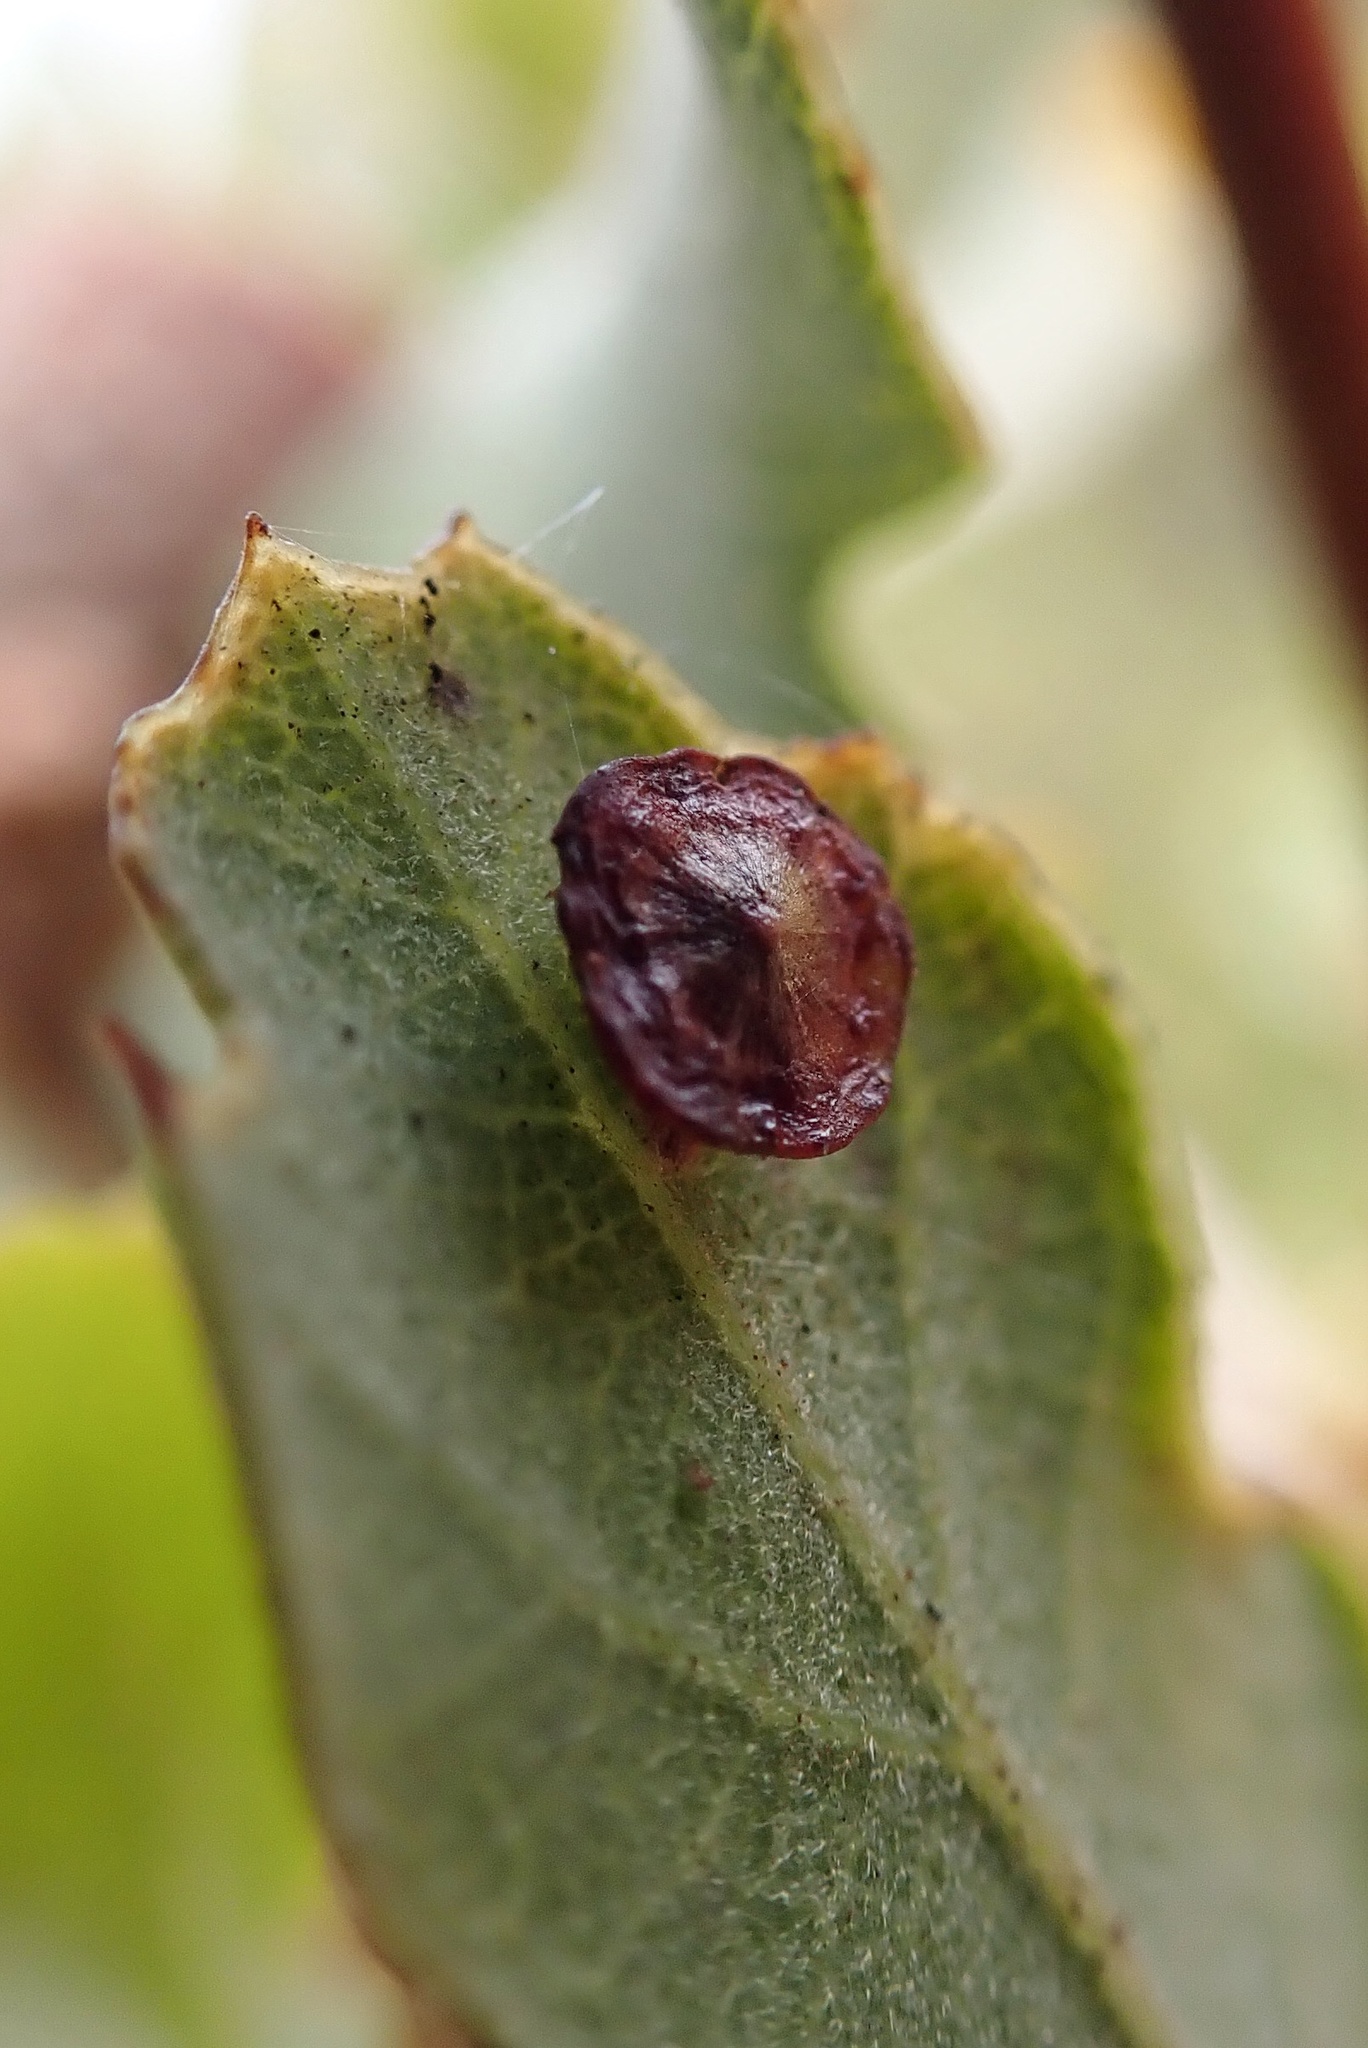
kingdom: Animalia
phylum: Arthropoda
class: Insecta
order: Hymenoptera
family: Cynipidae
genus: Andricus
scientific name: Andricus
